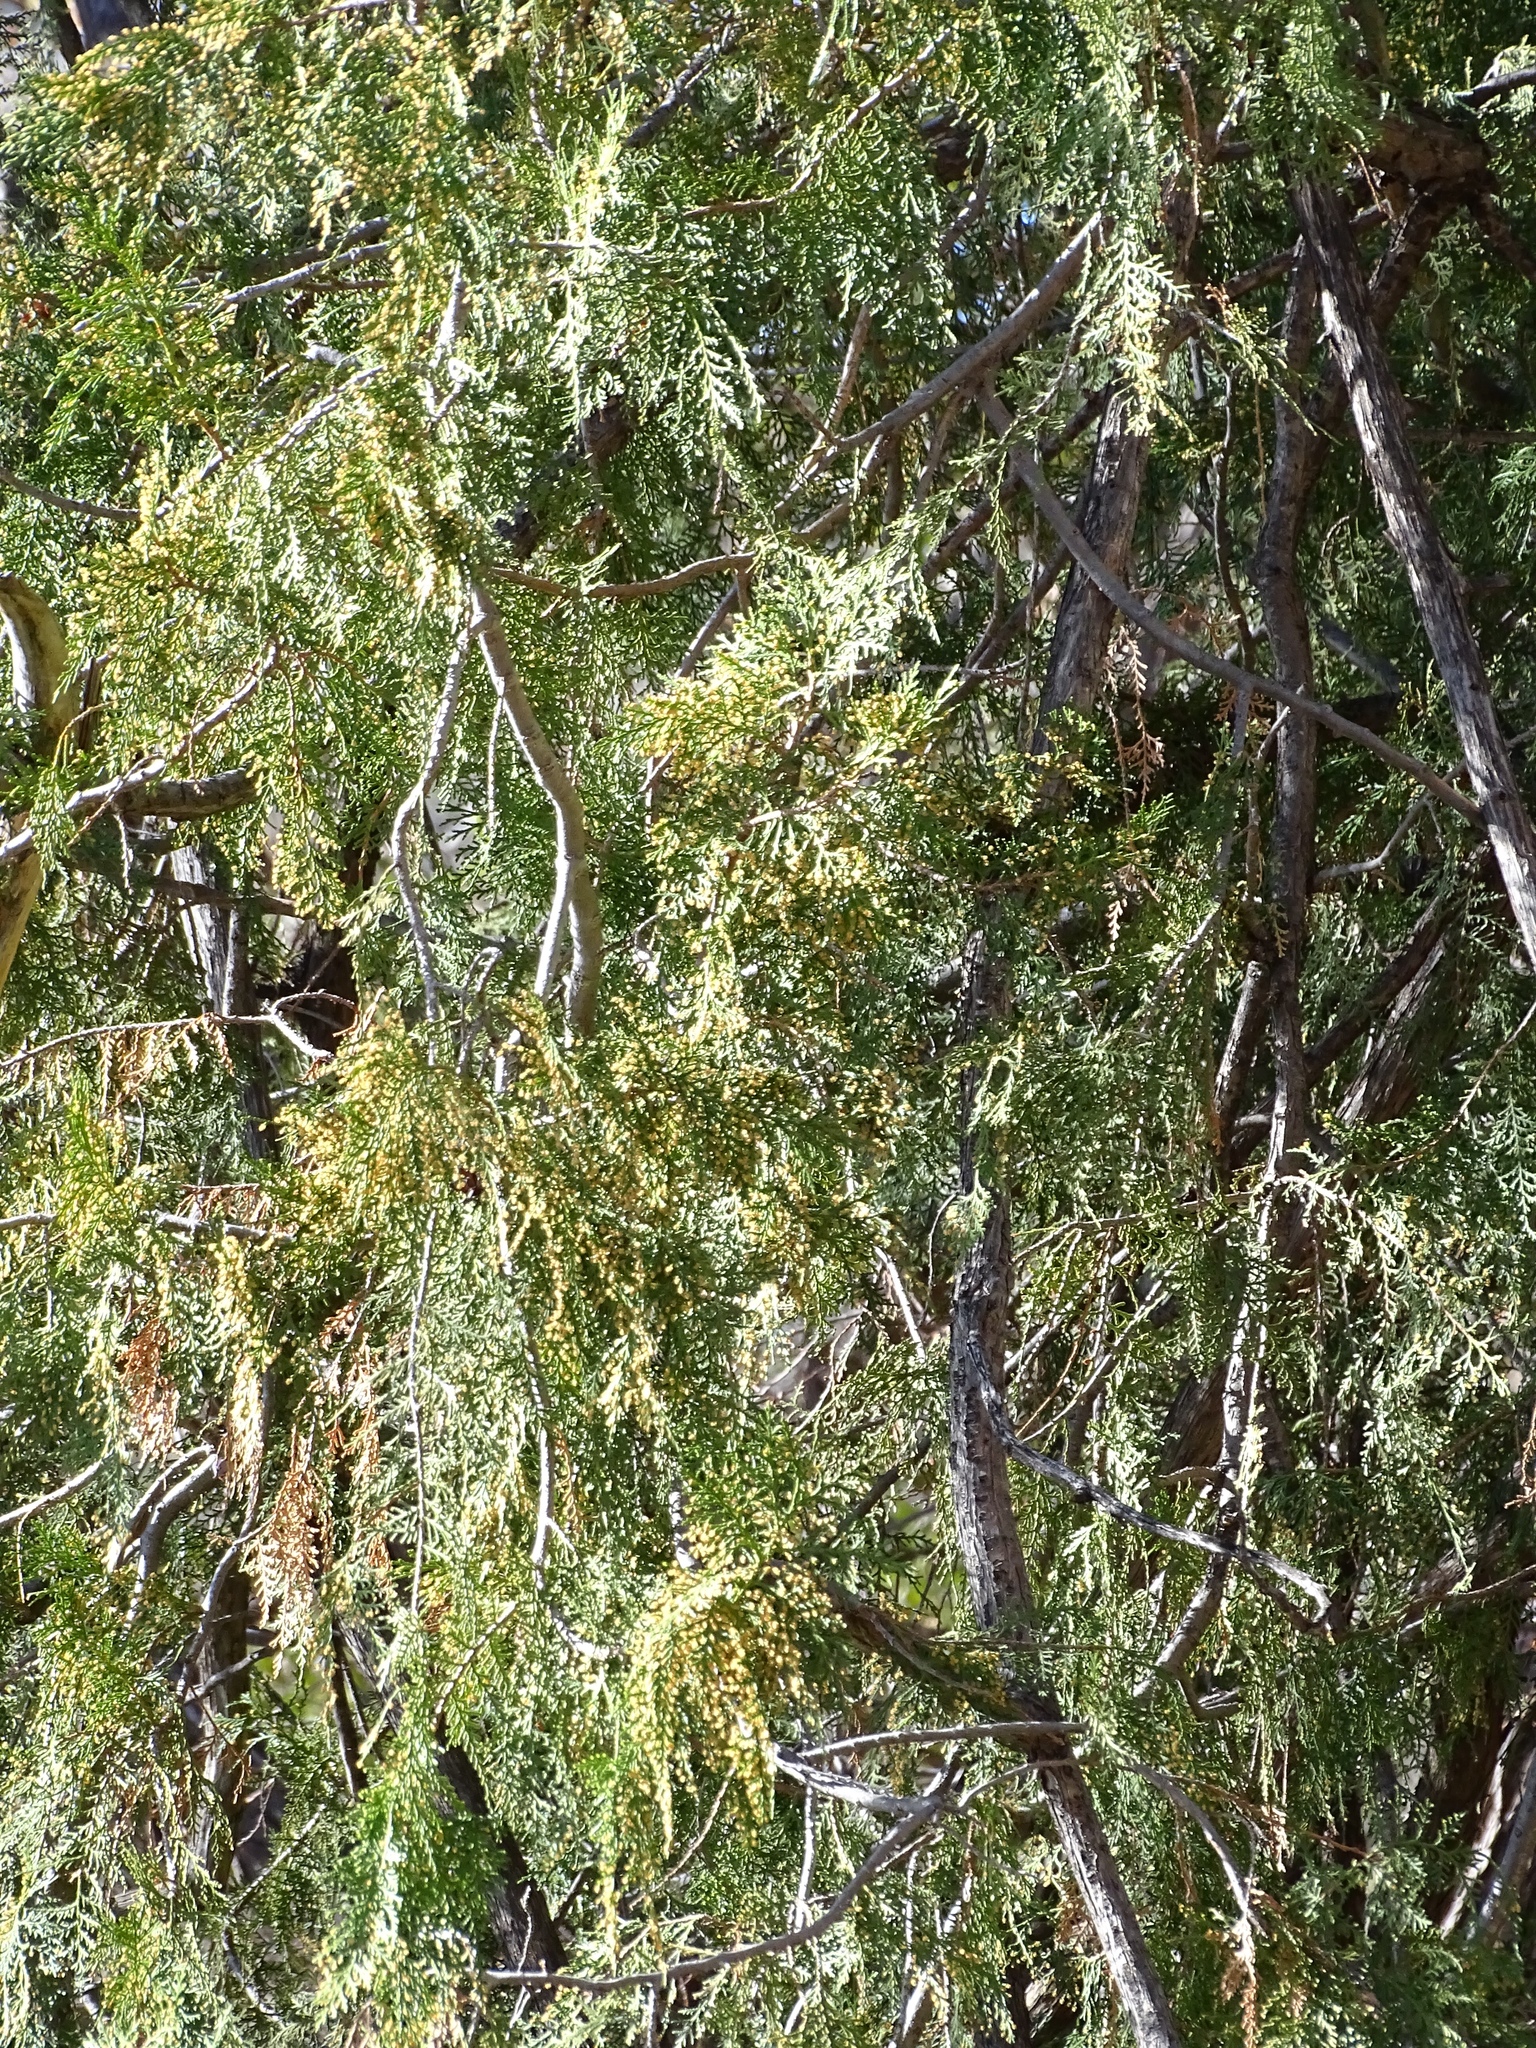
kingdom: Plantae
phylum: Tracheophyta
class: Pinopsida
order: Pinales
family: Cupressaceae
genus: Cupressus
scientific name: Cupressus arizonica
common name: Arizona cypress
